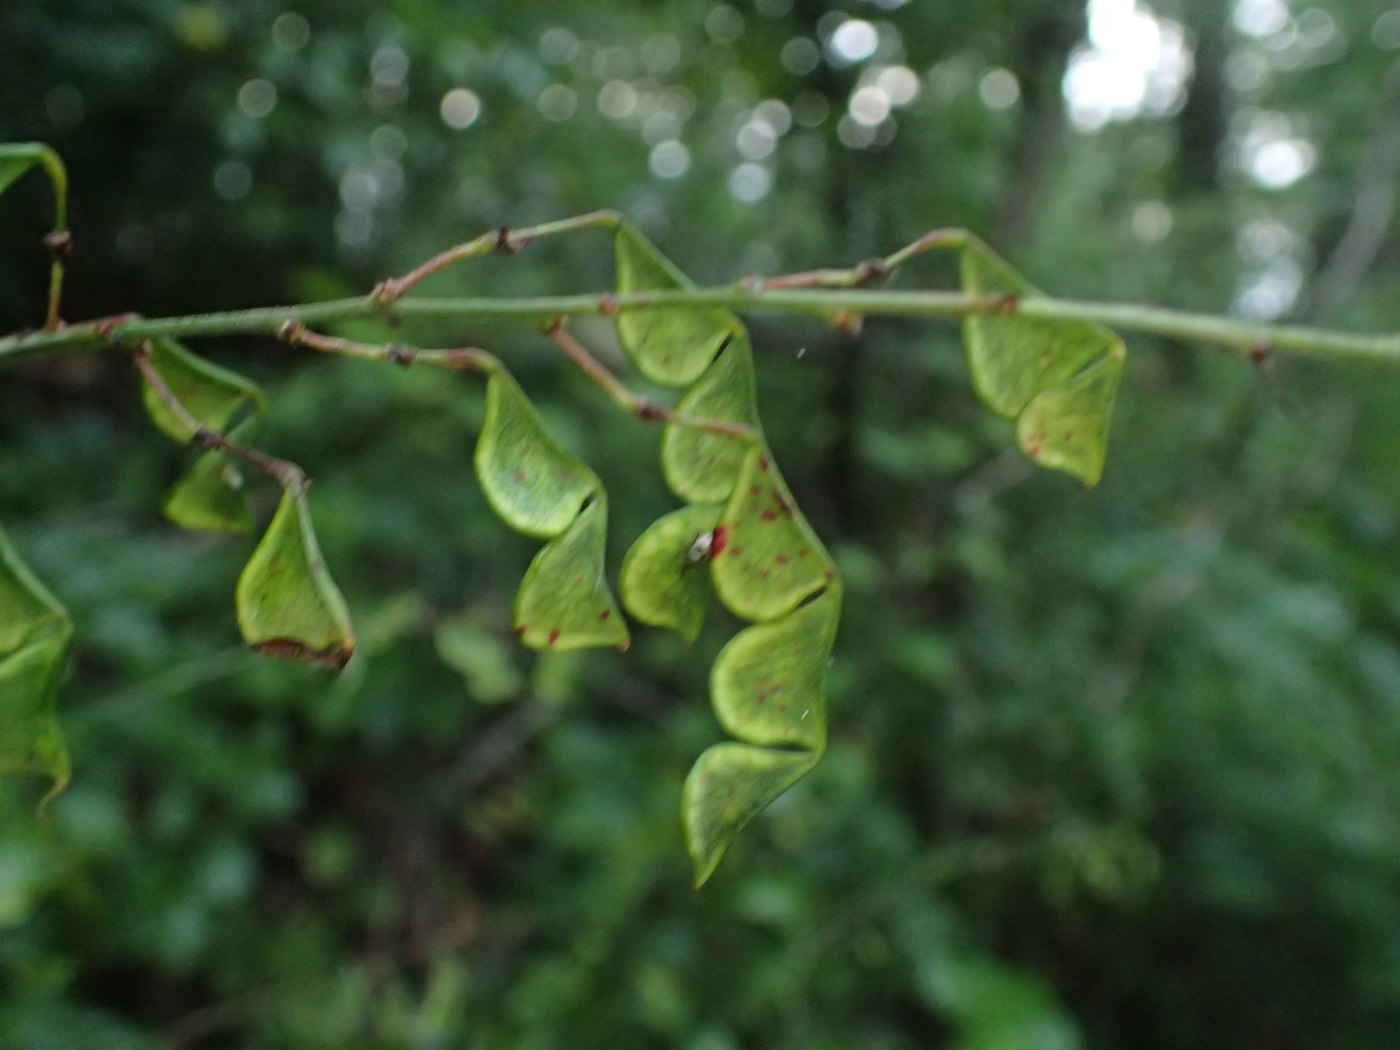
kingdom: Plantae
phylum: Tracheophyta
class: Magnoliopsida
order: Fabales
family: Fabaceae
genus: Hylodesmum
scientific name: Hylodesmum glutinosum
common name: Clustered-leaved tick-trefoil
